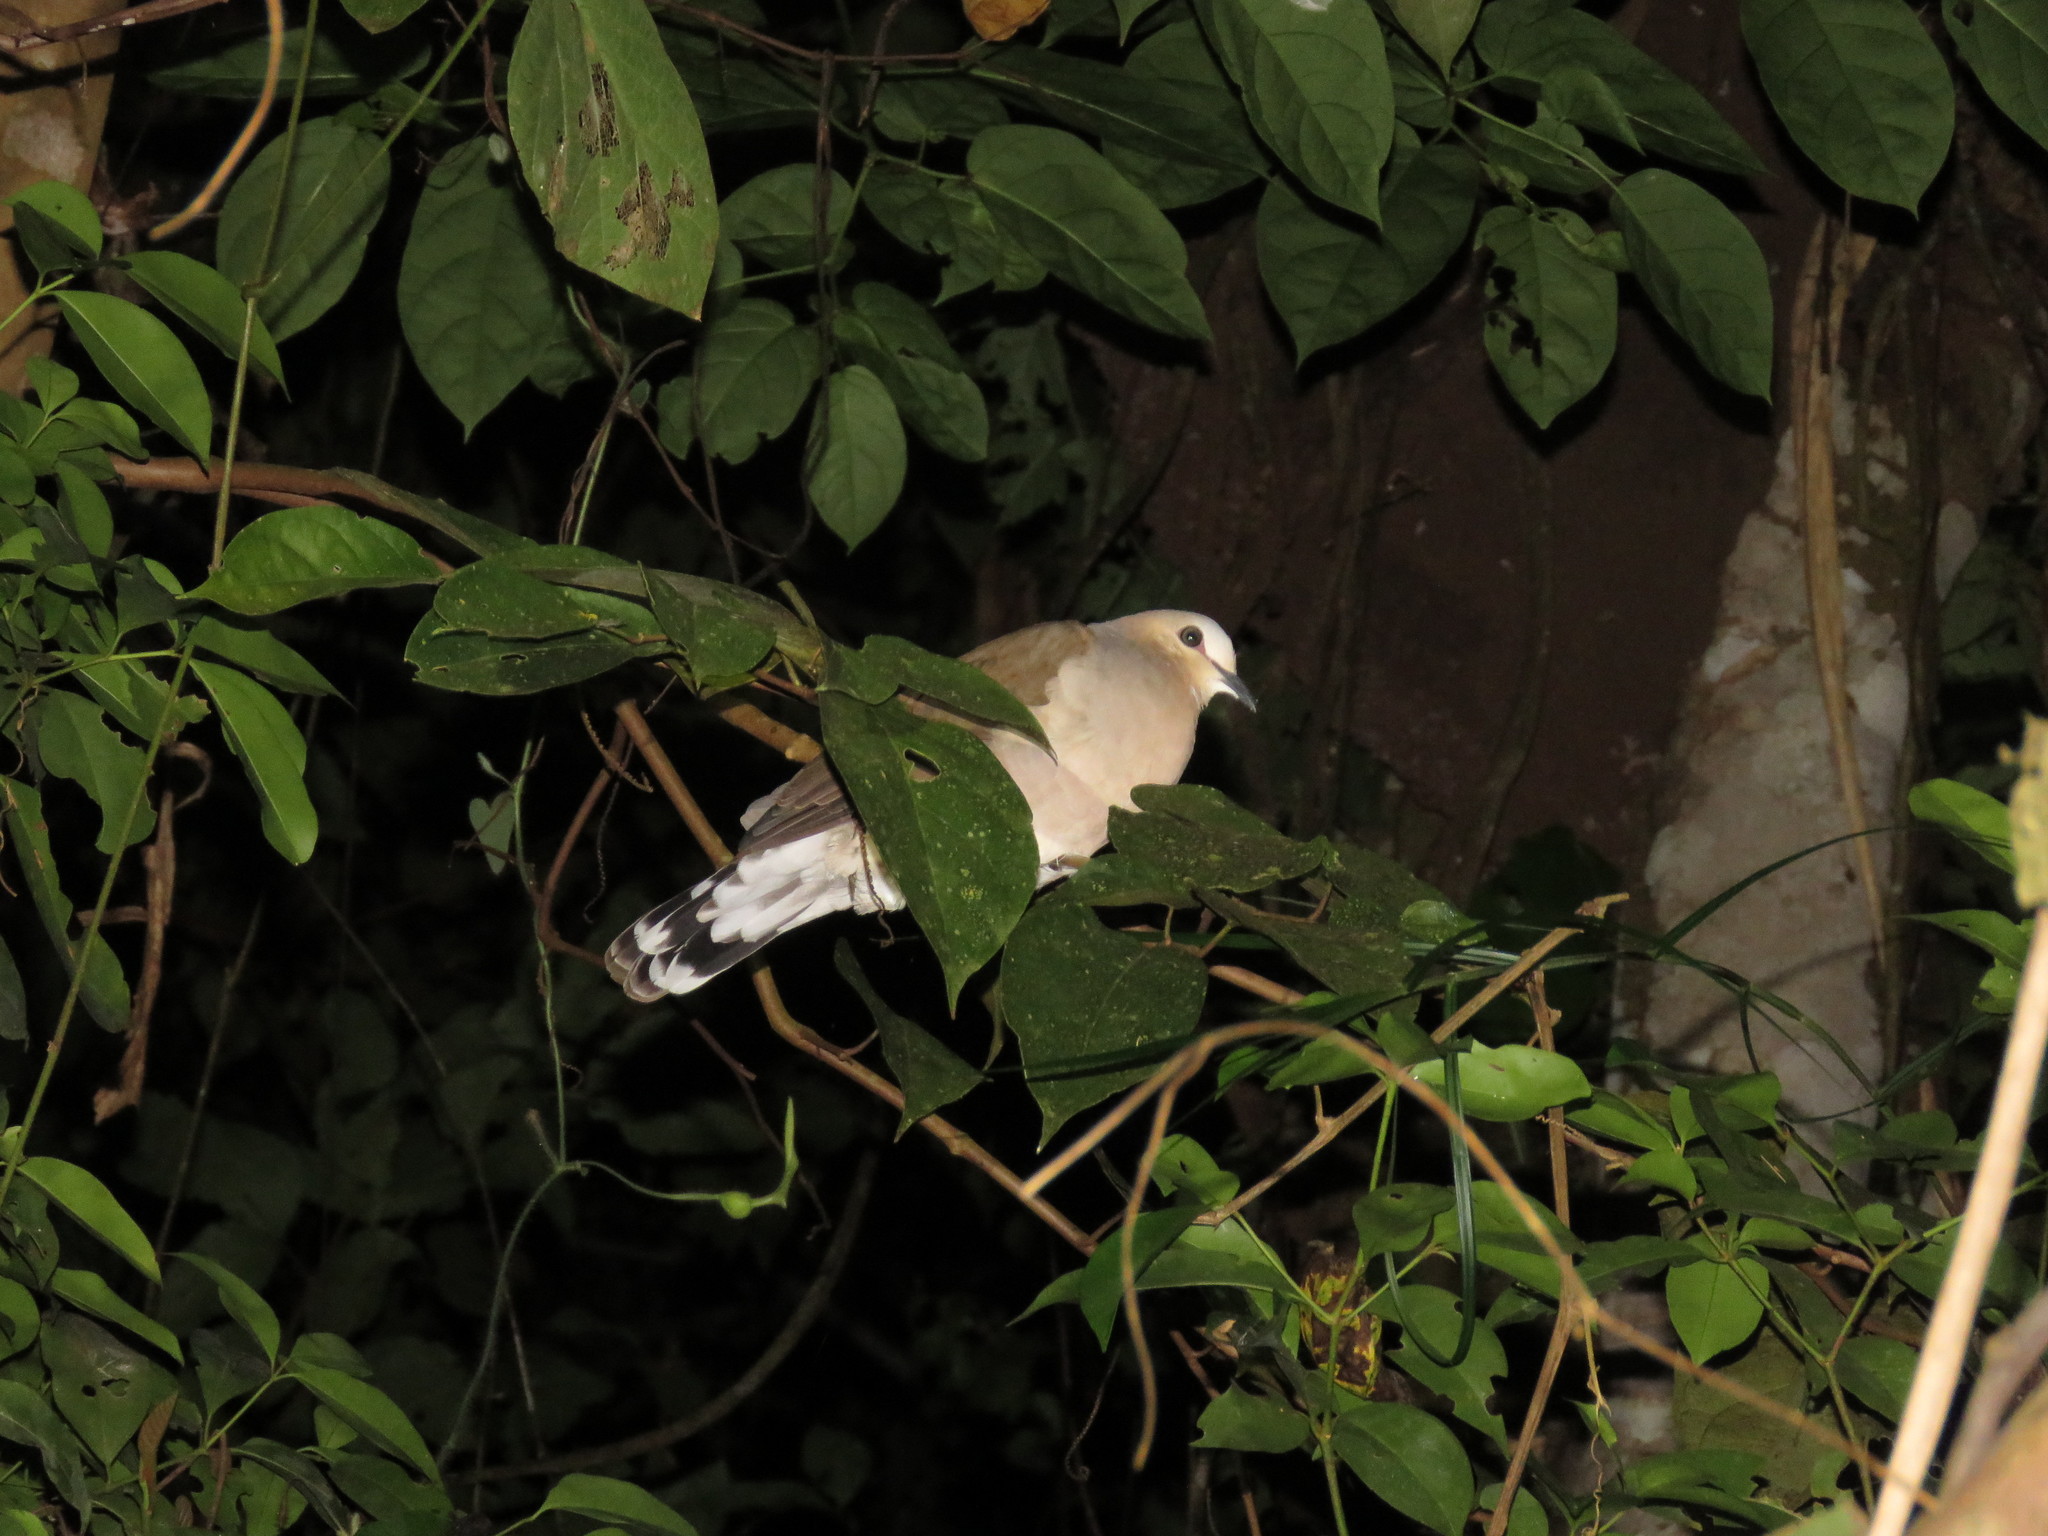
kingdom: Animalia
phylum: Chordata
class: Aves
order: Columbiformes
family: Columbidae
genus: Leptotila
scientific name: Leptotila rufaxilla
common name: Grey-fronted dove
